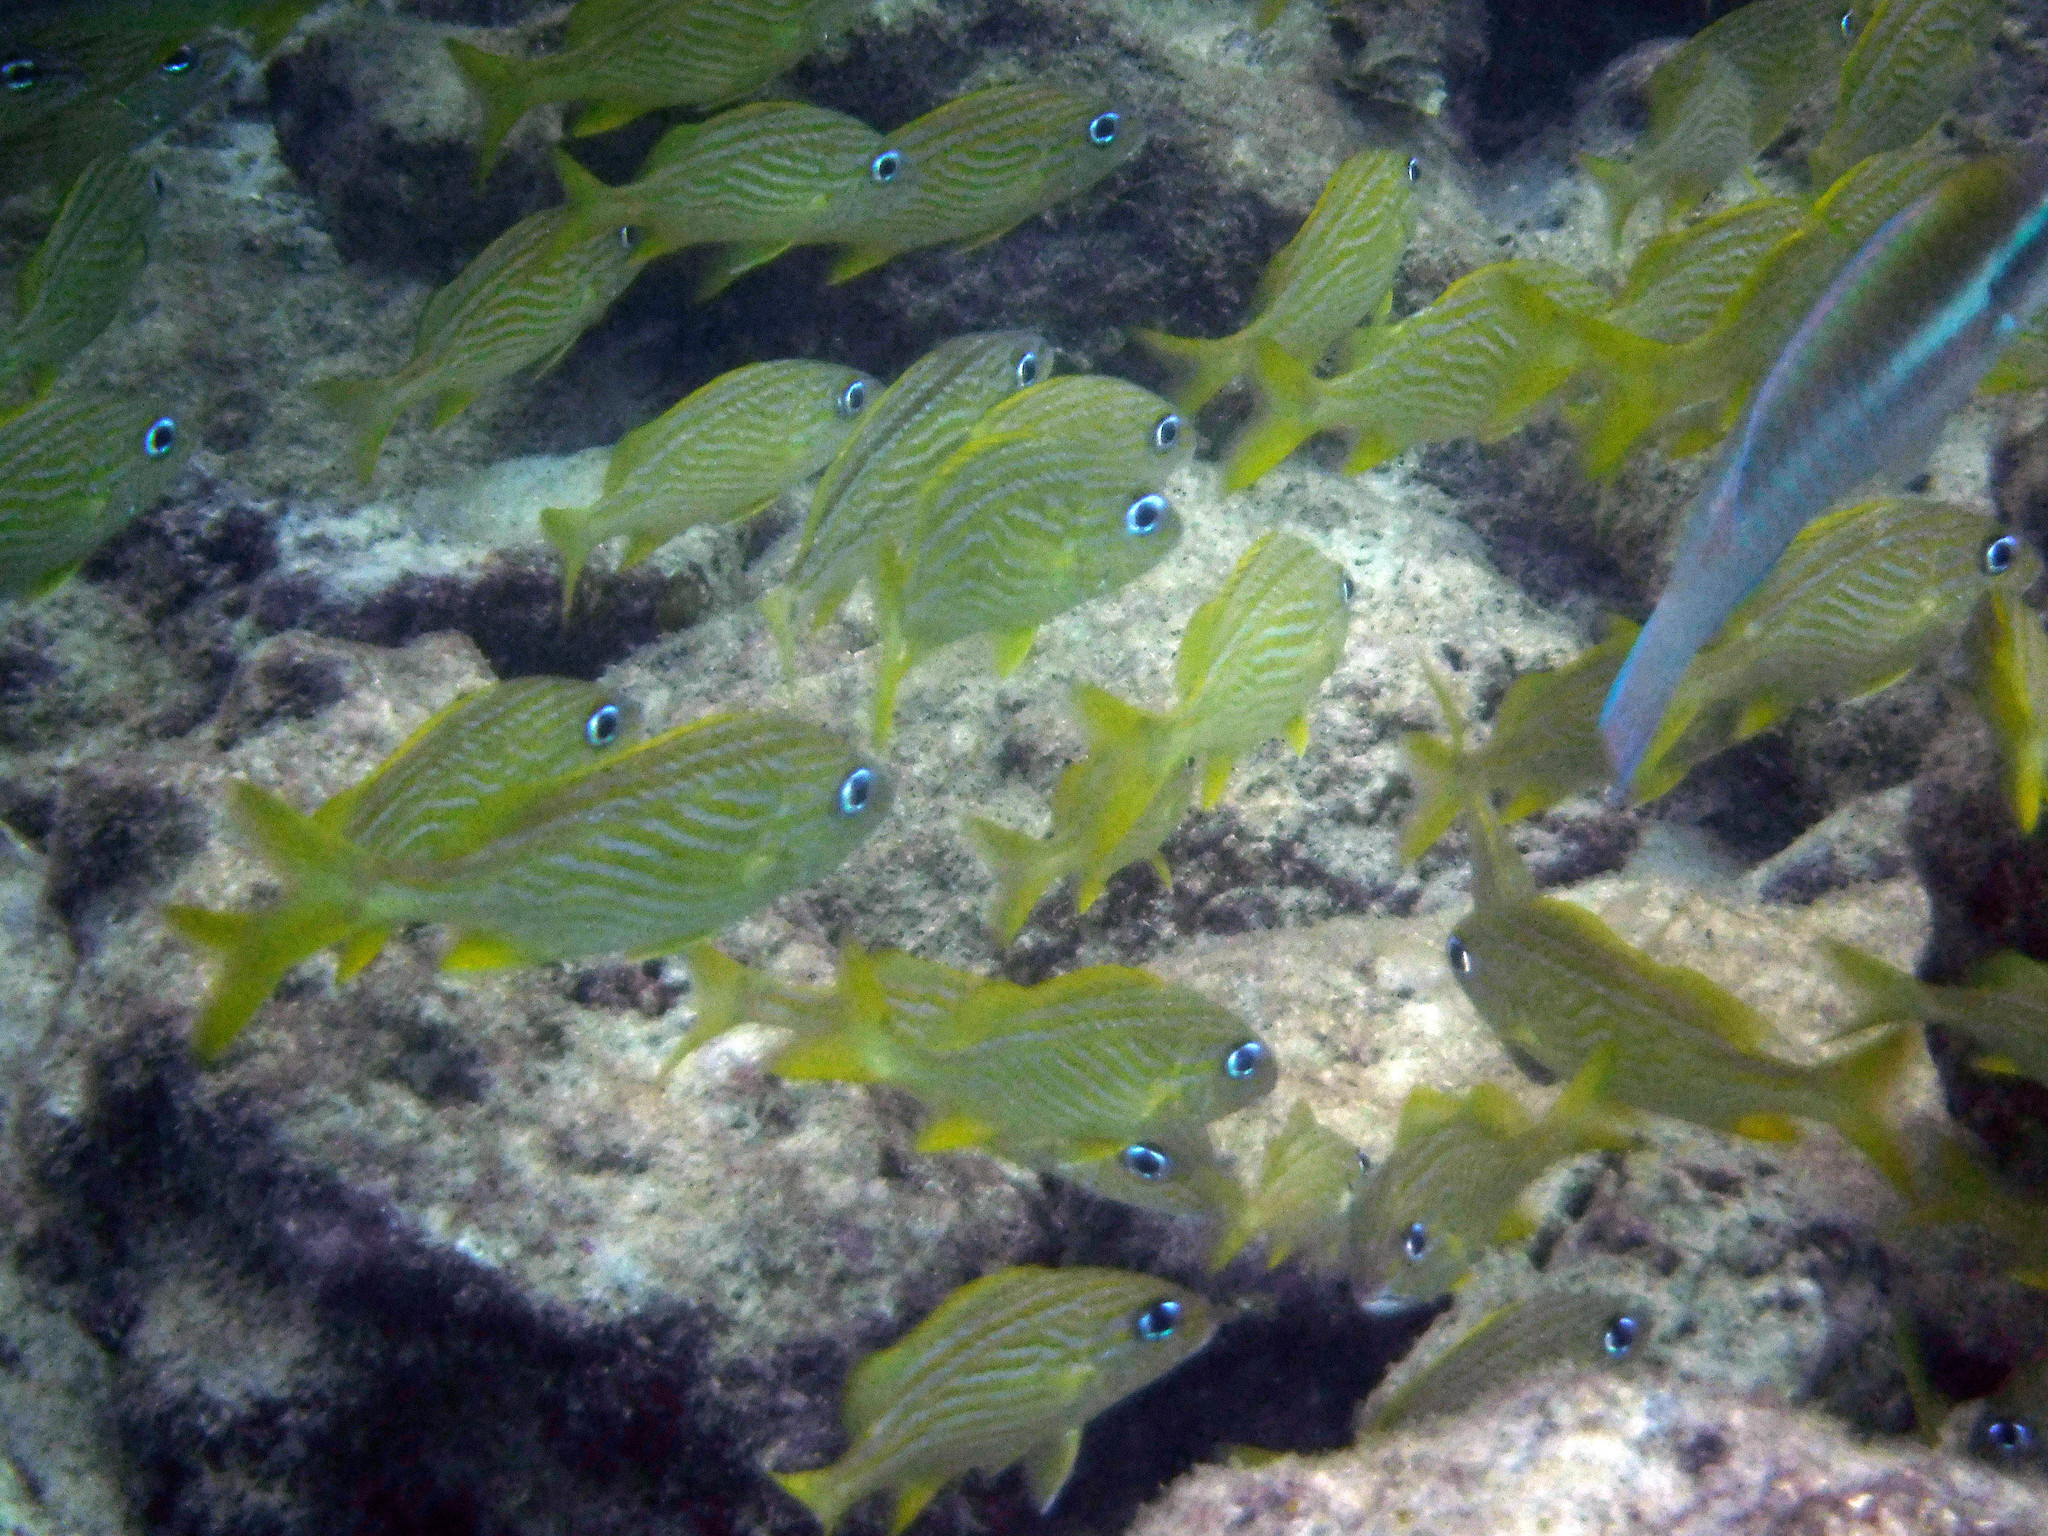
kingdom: Animalia
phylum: Chordata
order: Perciformes
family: Scaridae
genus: Scarus
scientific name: Scarus iseri
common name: Striped parrotfish
